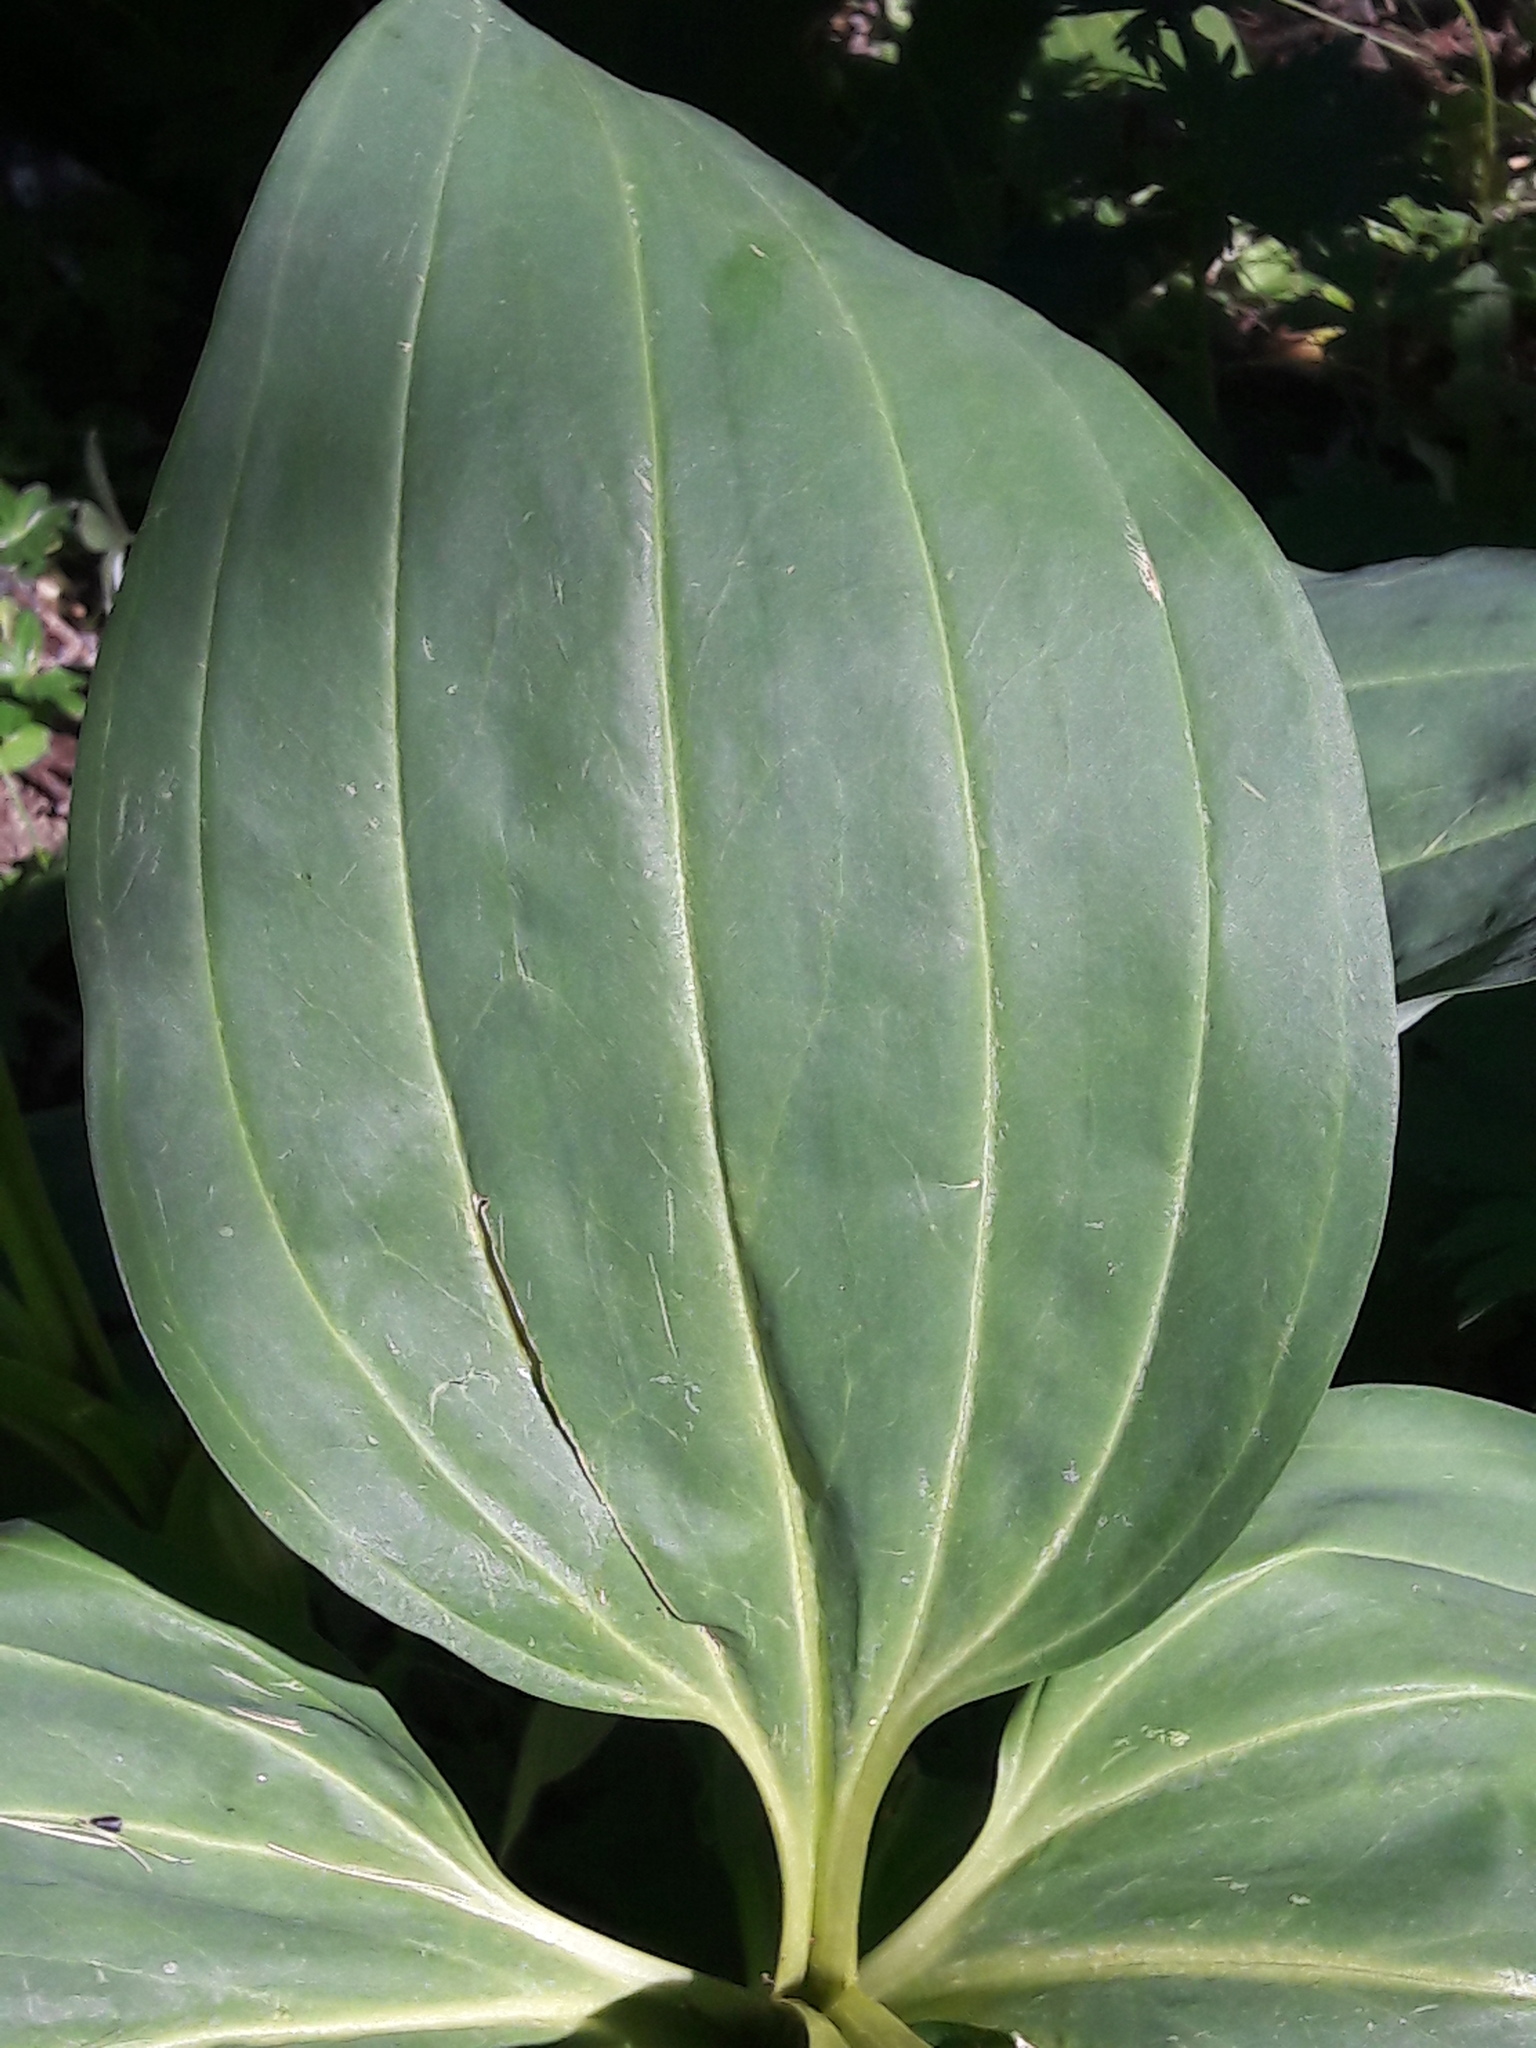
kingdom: Plantae
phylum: Tracheophyta
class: Magnoliopsida
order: Gentianales
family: Gentianaceae
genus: Gentiana
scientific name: Gentiana lutea
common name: Great yellow gentian
